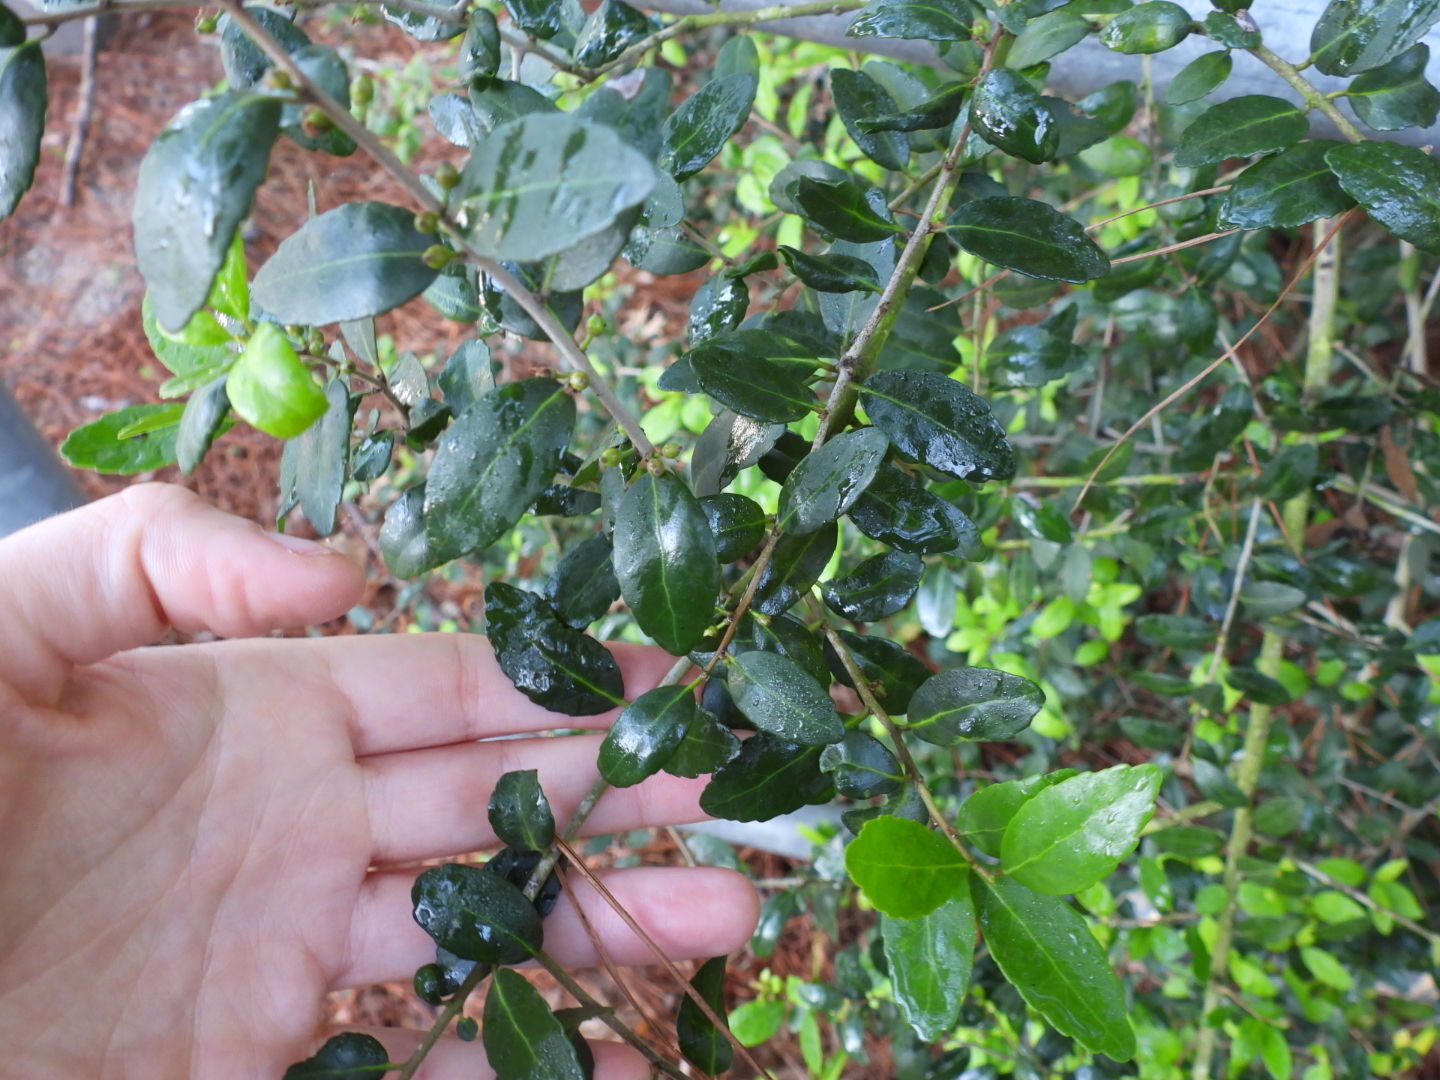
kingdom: Plantae
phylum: Tracheophyta
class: Magnoliopsida
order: Aquifoliales
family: Aquifoliaceae
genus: Ilex
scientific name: Ilex vomitoria
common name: Yaupon holly
